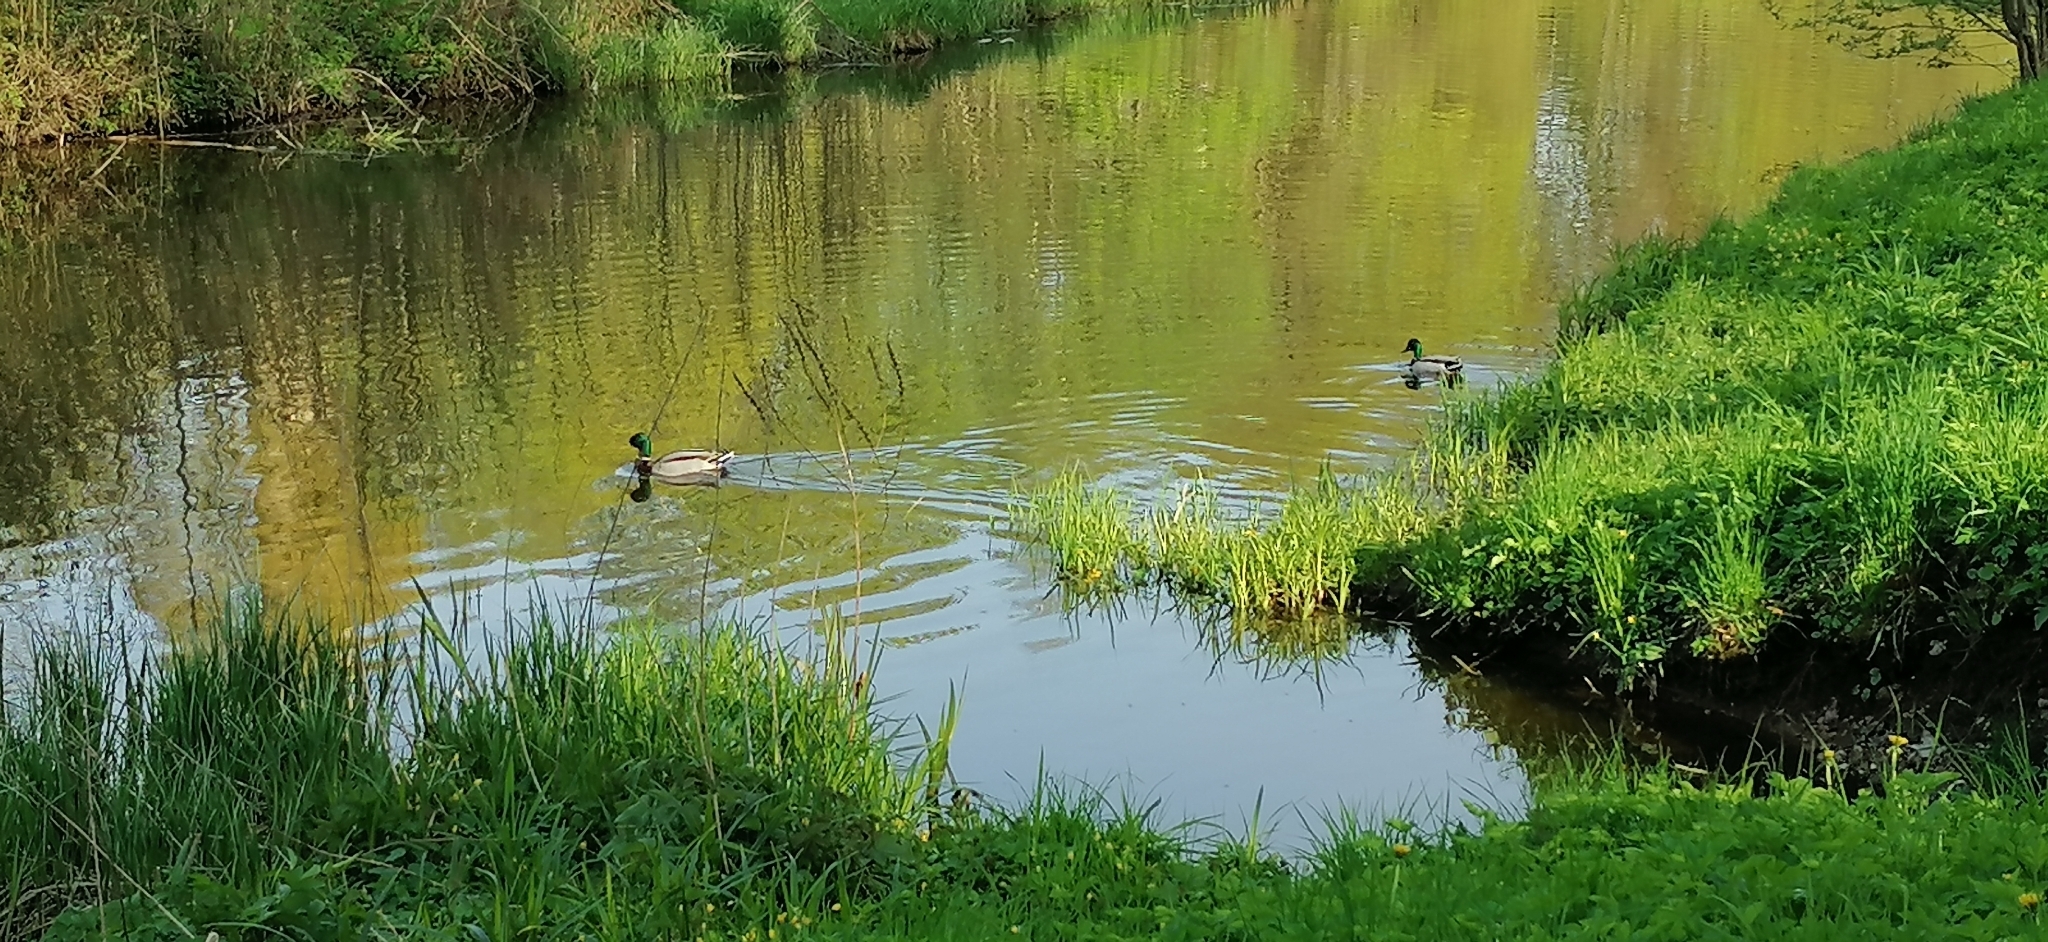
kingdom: Animalia
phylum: Chordata
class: Aves
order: Anseriformes
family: Anatidae
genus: Anas
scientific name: Anas platyrhynchos
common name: Mallard
